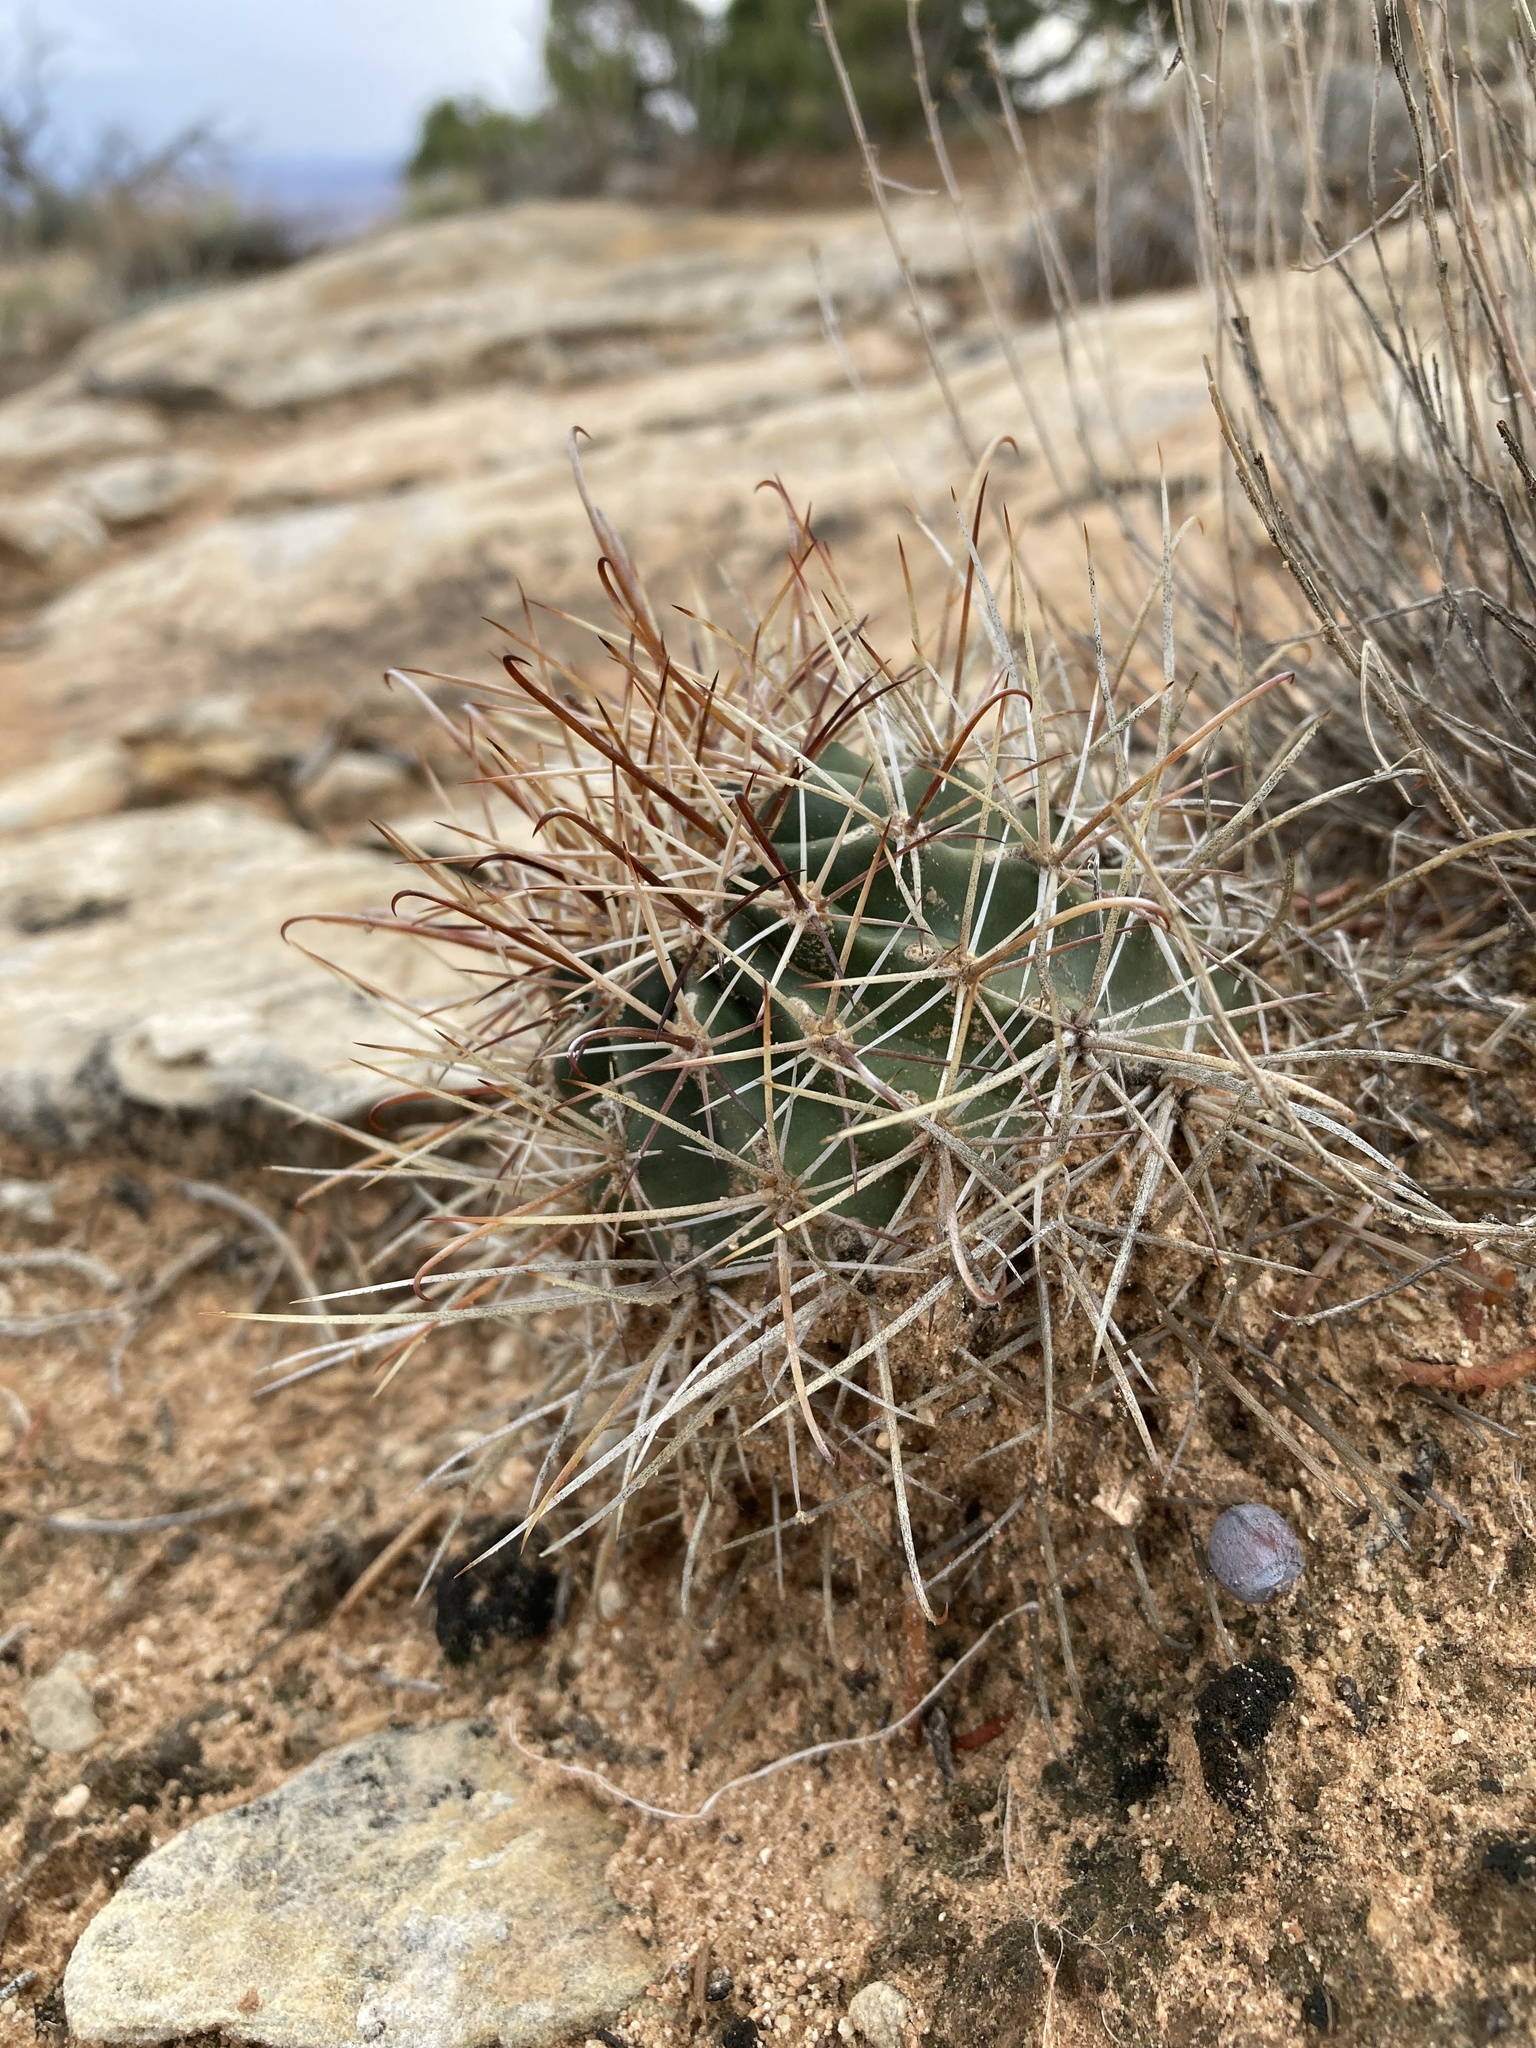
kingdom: Plantae
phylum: Tracheophyta
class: Magnoliopsida
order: Caryophyllales
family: Cactaceae
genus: Sclerocactus
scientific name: Sclerocactus parviflorus
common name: Small-flower fishhook cactus
